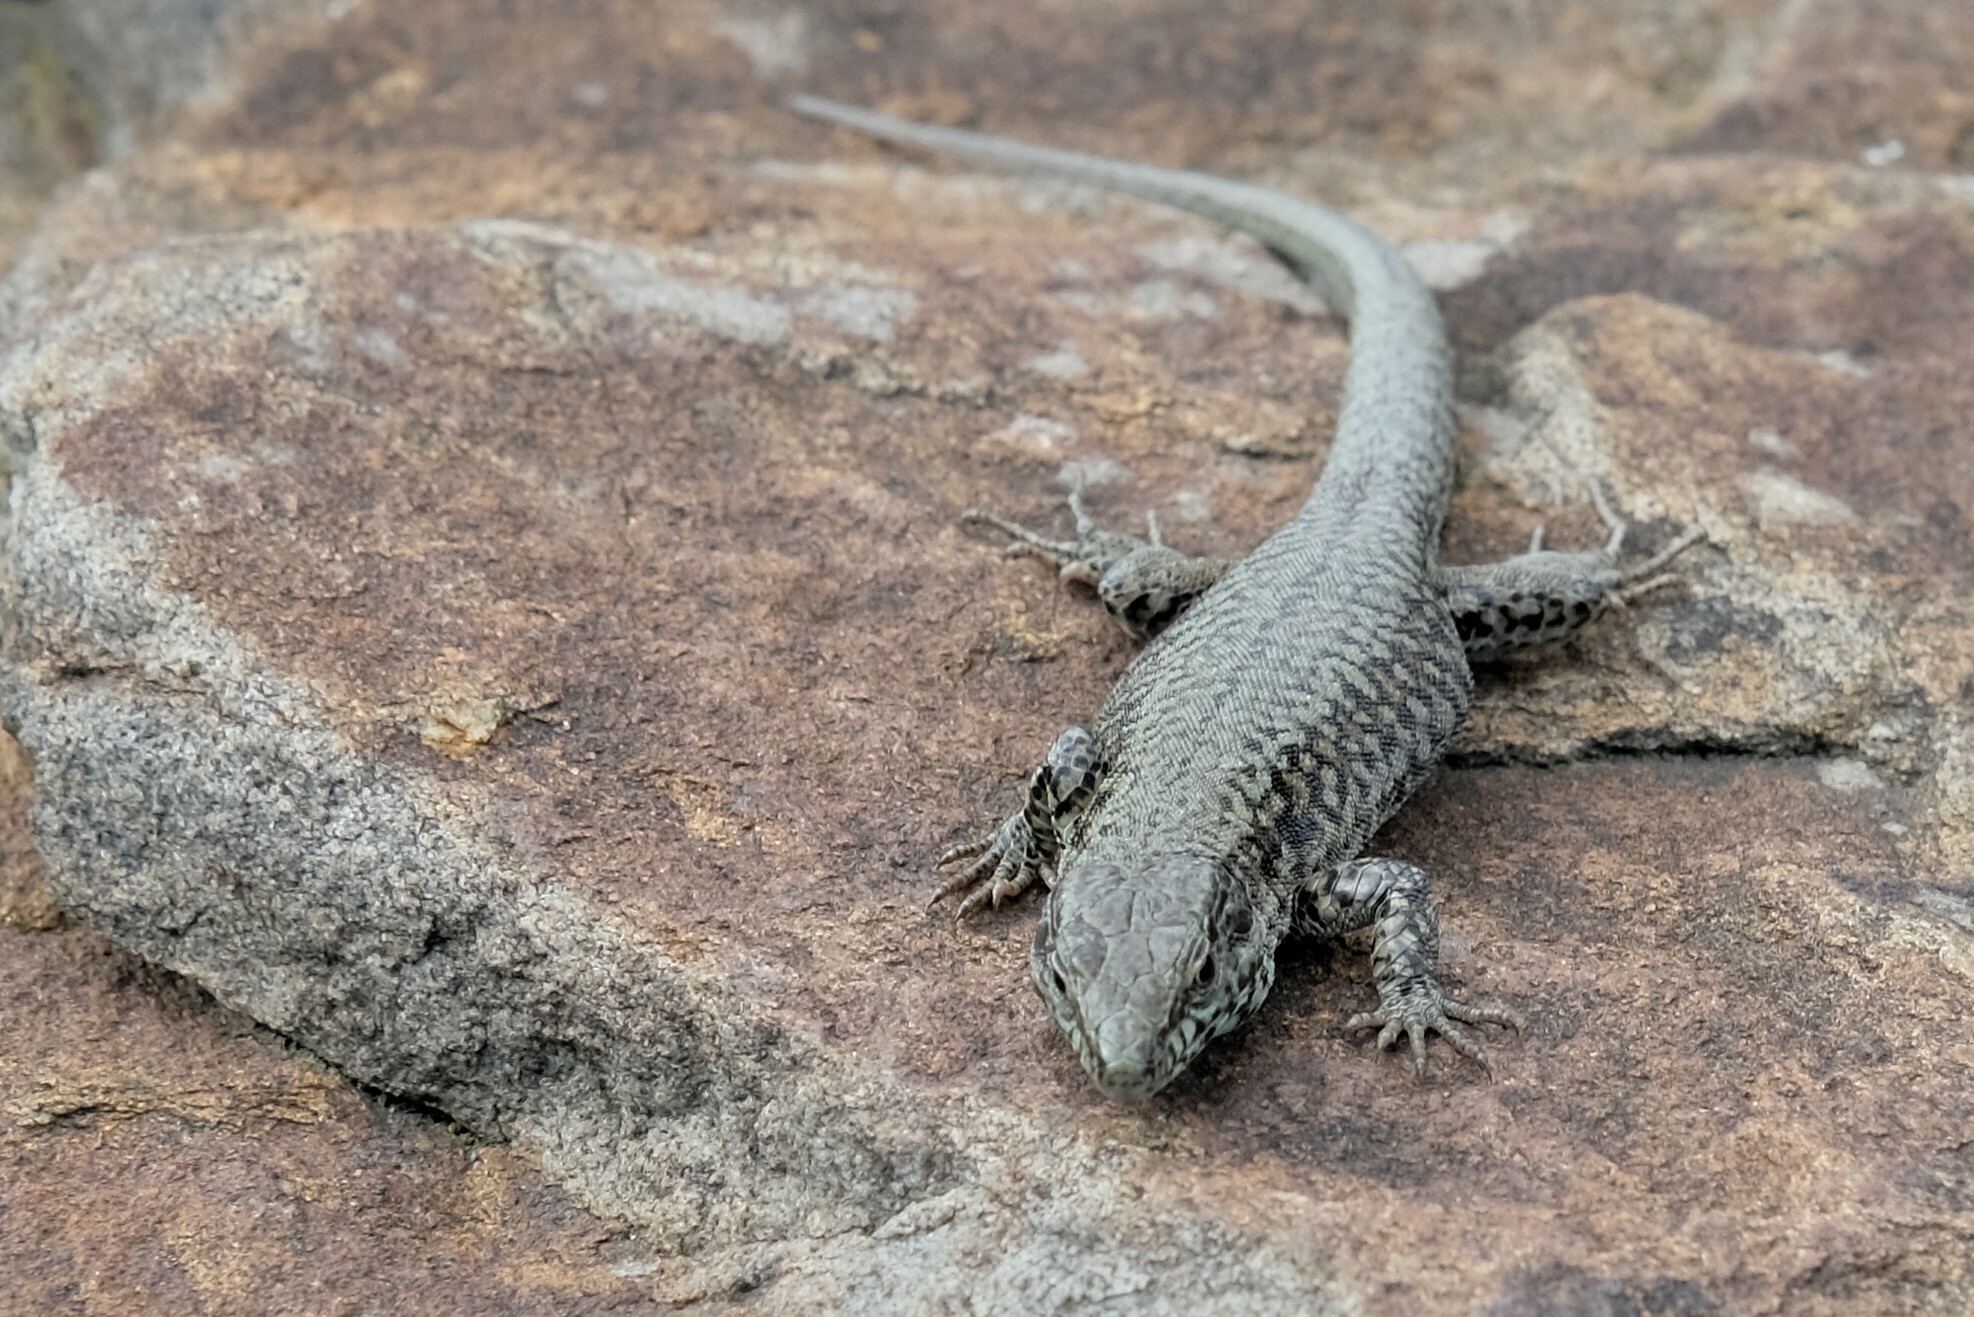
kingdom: Animalia
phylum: Chordata
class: Squamata
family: Lacertidae
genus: Podarcis
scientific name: Podarcis muralis
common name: Common wall lizard
